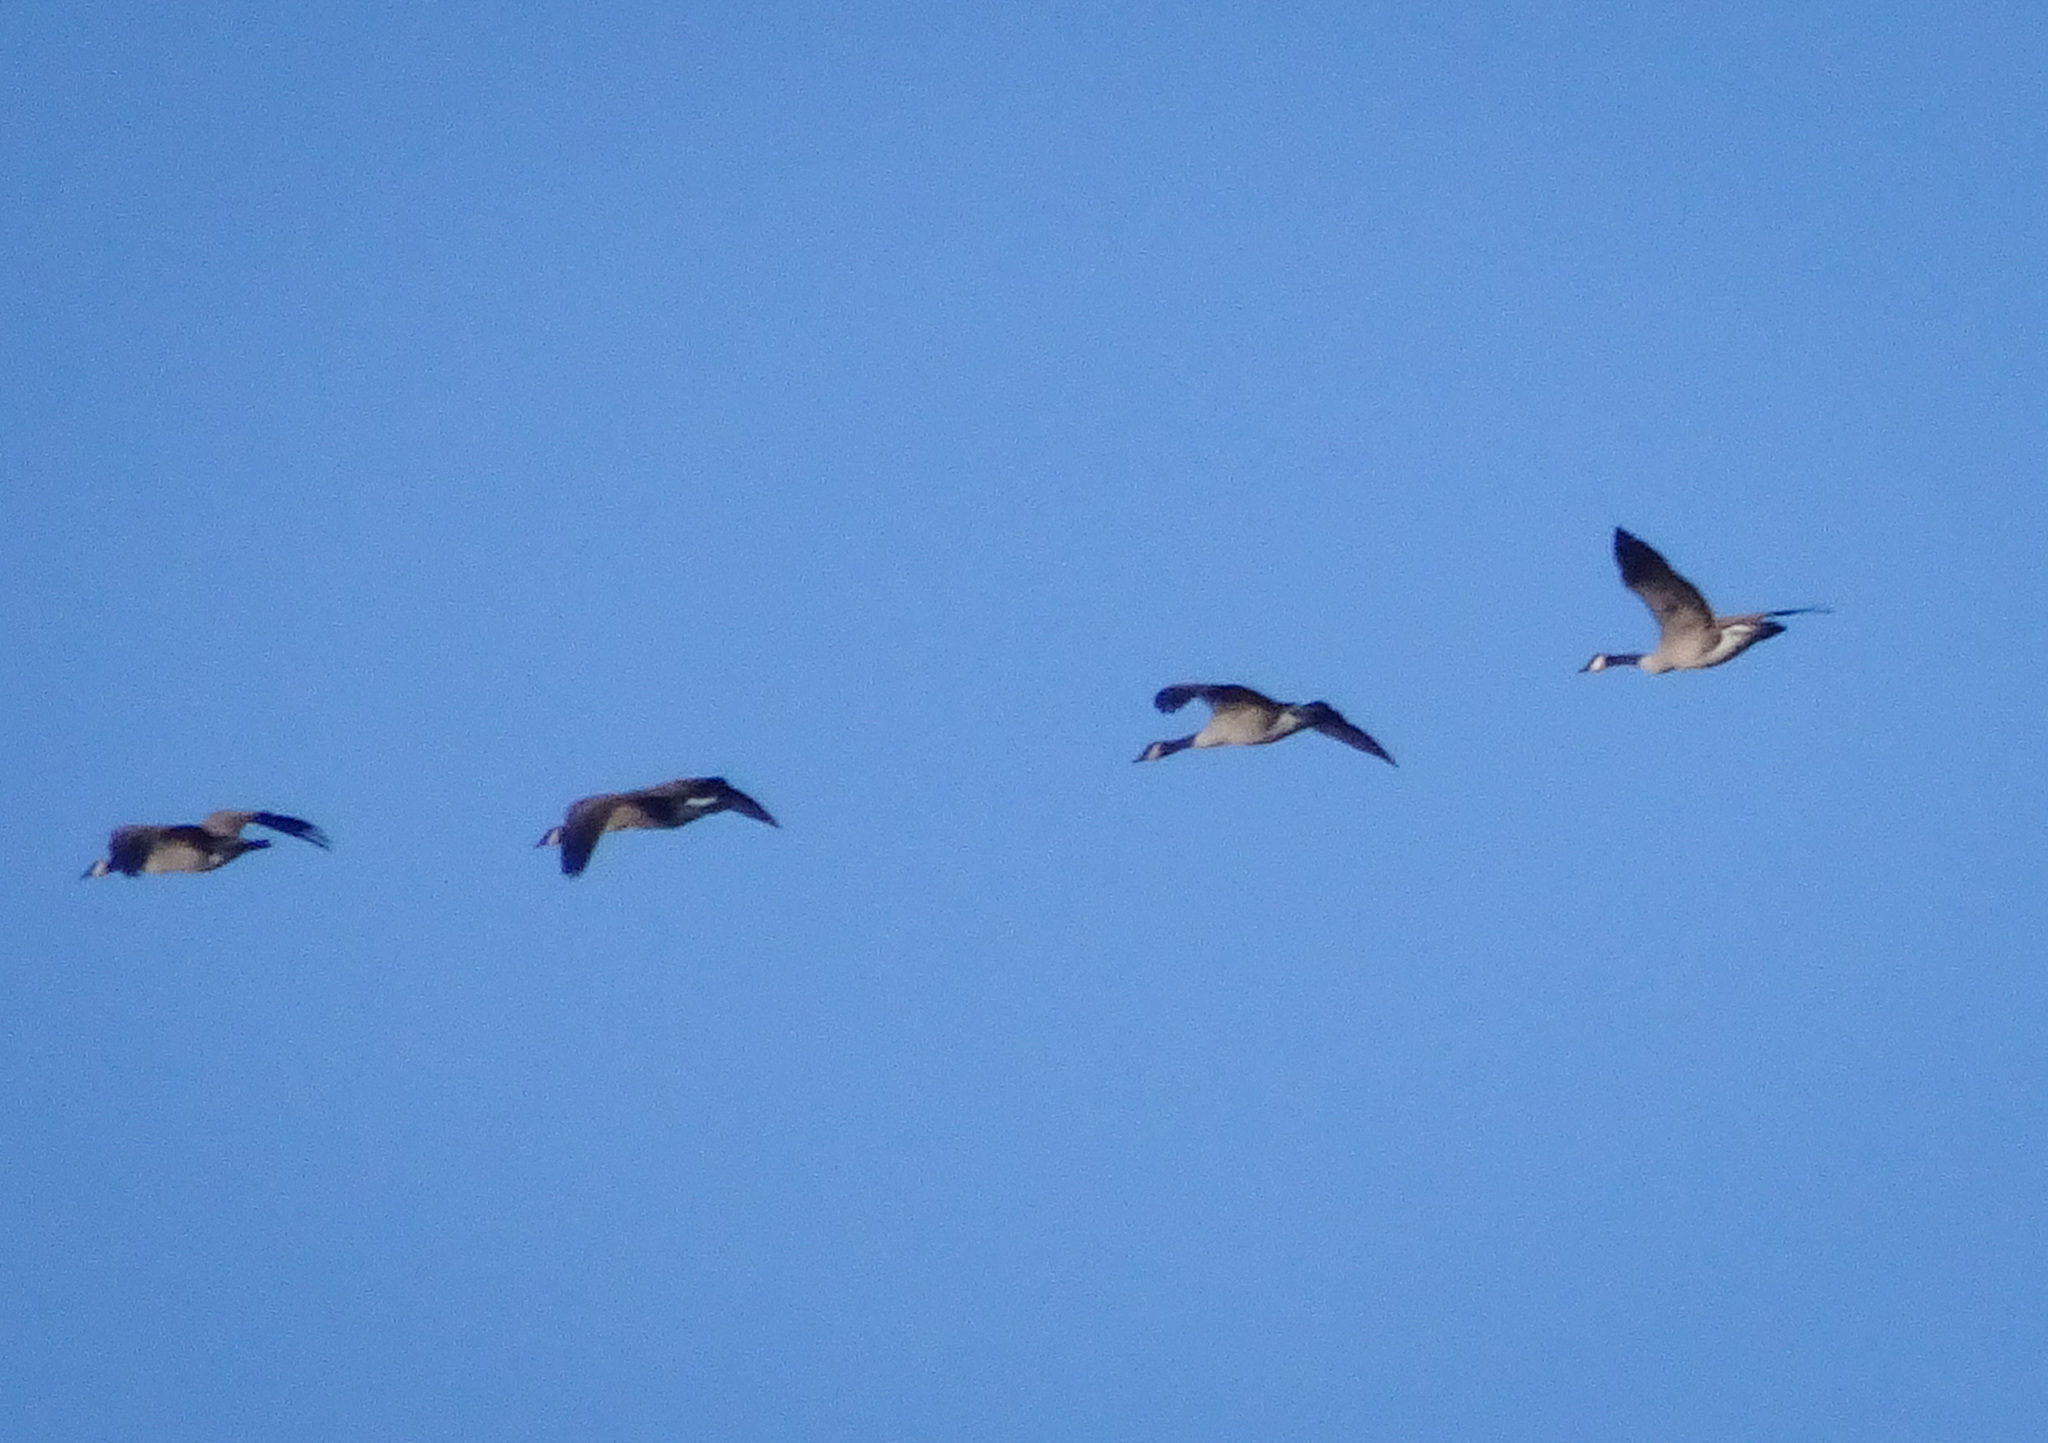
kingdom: Animalia
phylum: Chordata
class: Aves
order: Anseriformes
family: Anatidae
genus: Branta
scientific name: Branta canadensis
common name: Canada goose
